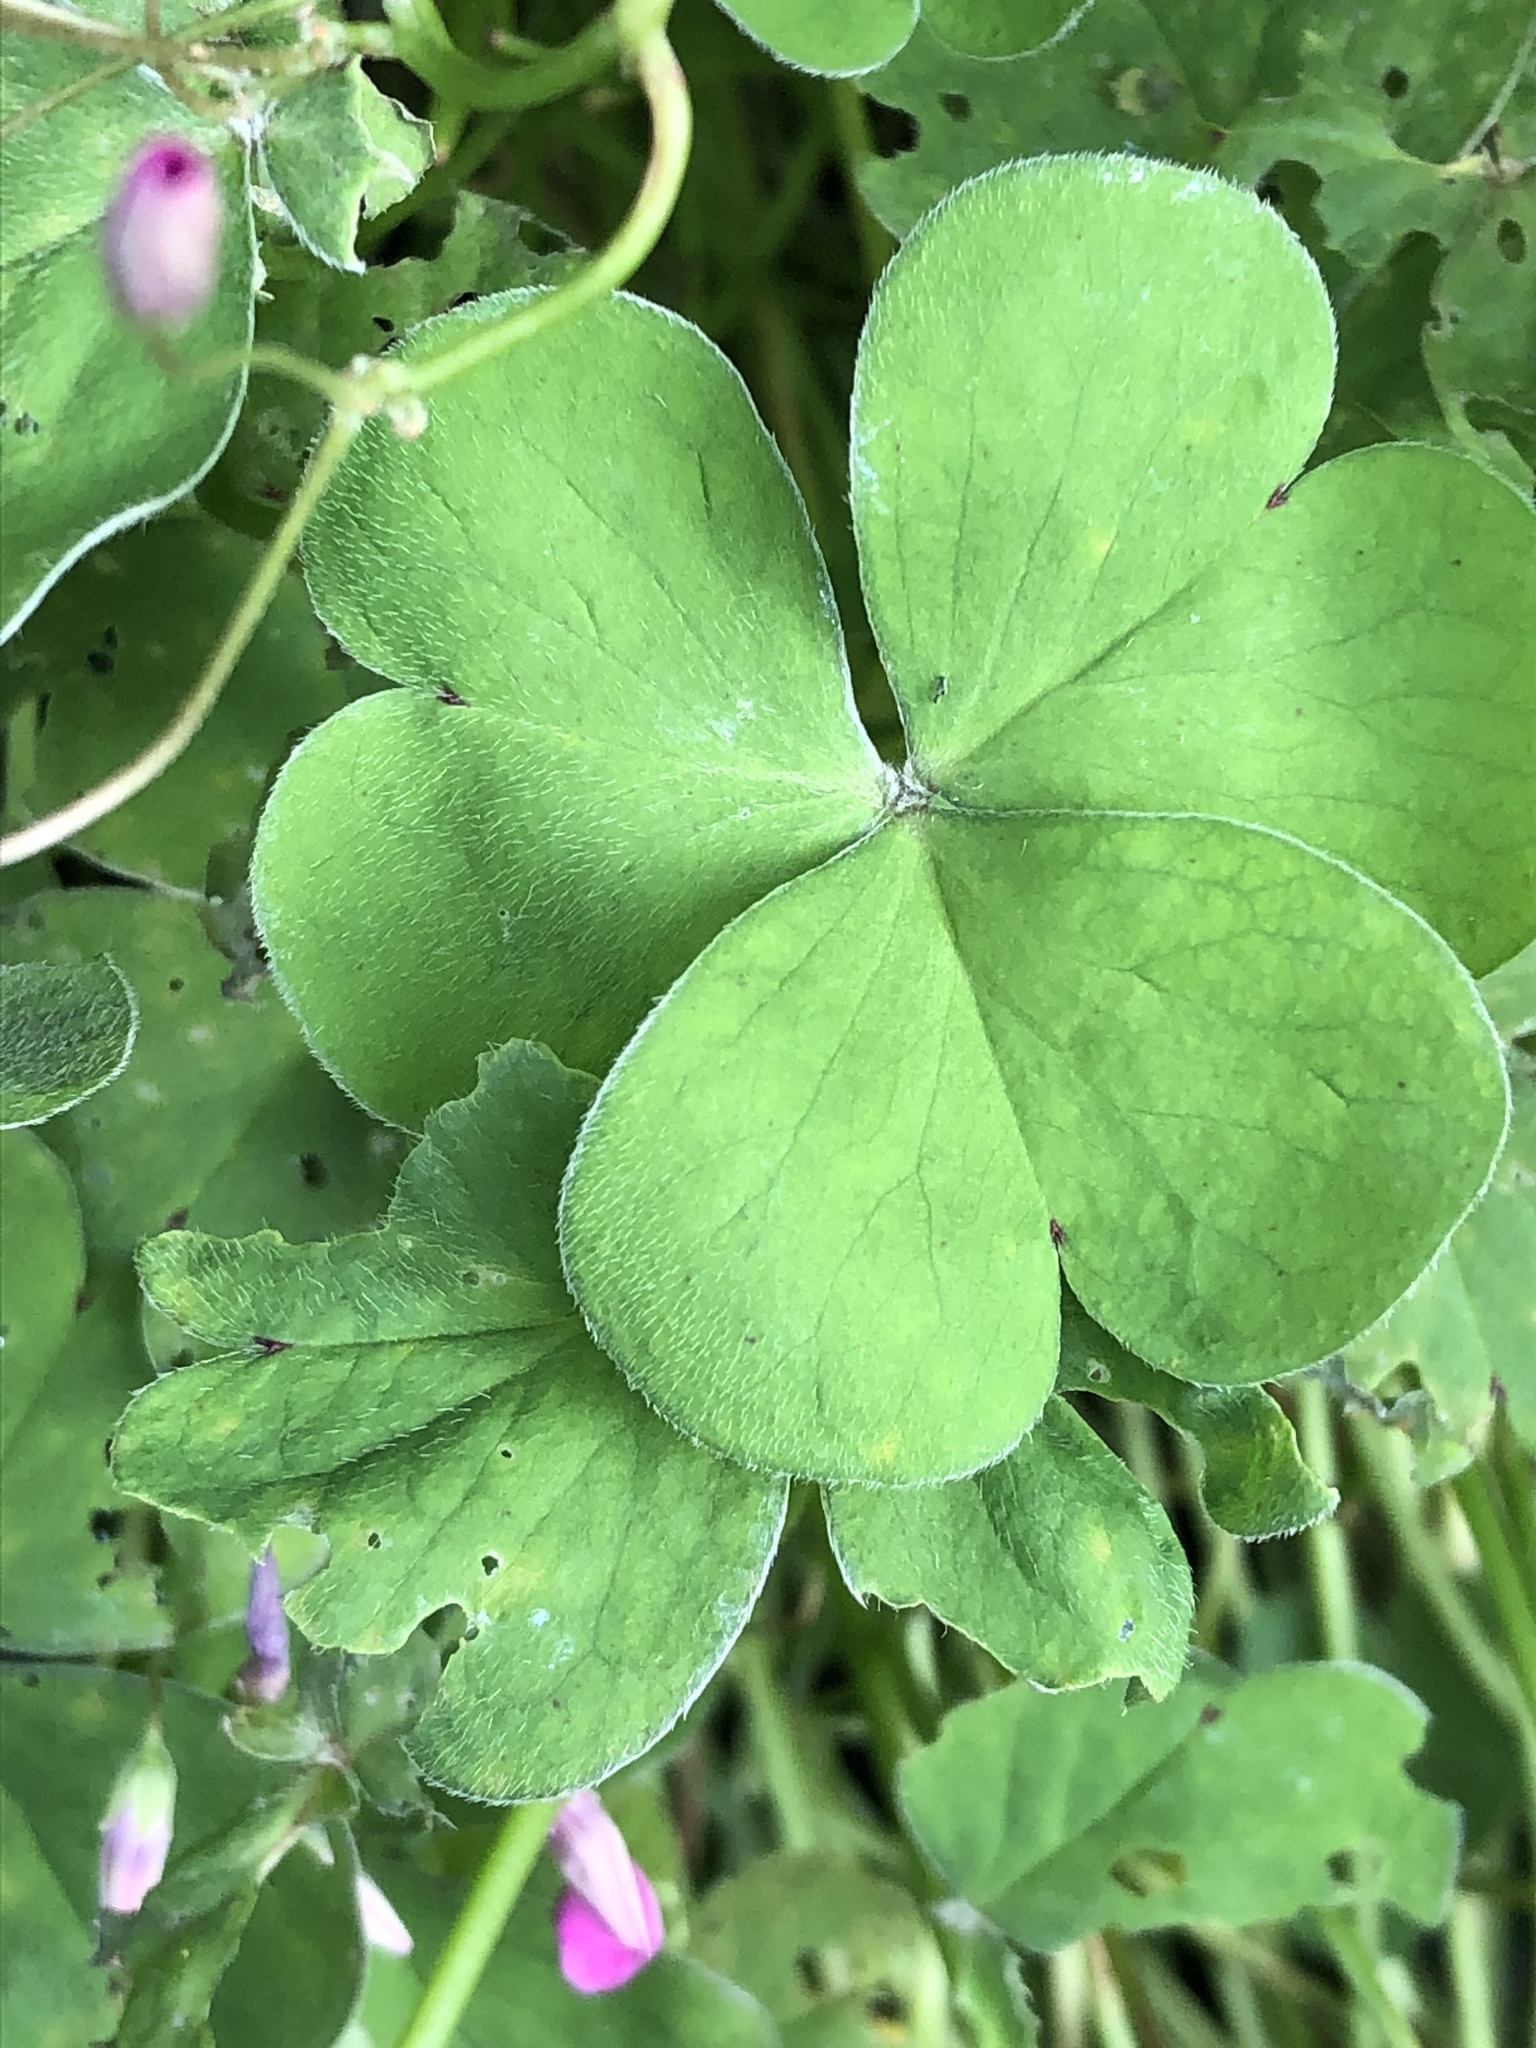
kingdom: Plantae
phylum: Tracheophyta
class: Magnoliopsida
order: Oxalidales
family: Oxalidaceae
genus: Oxalis
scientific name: Oxalis articulata
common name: Pink-sorrel
